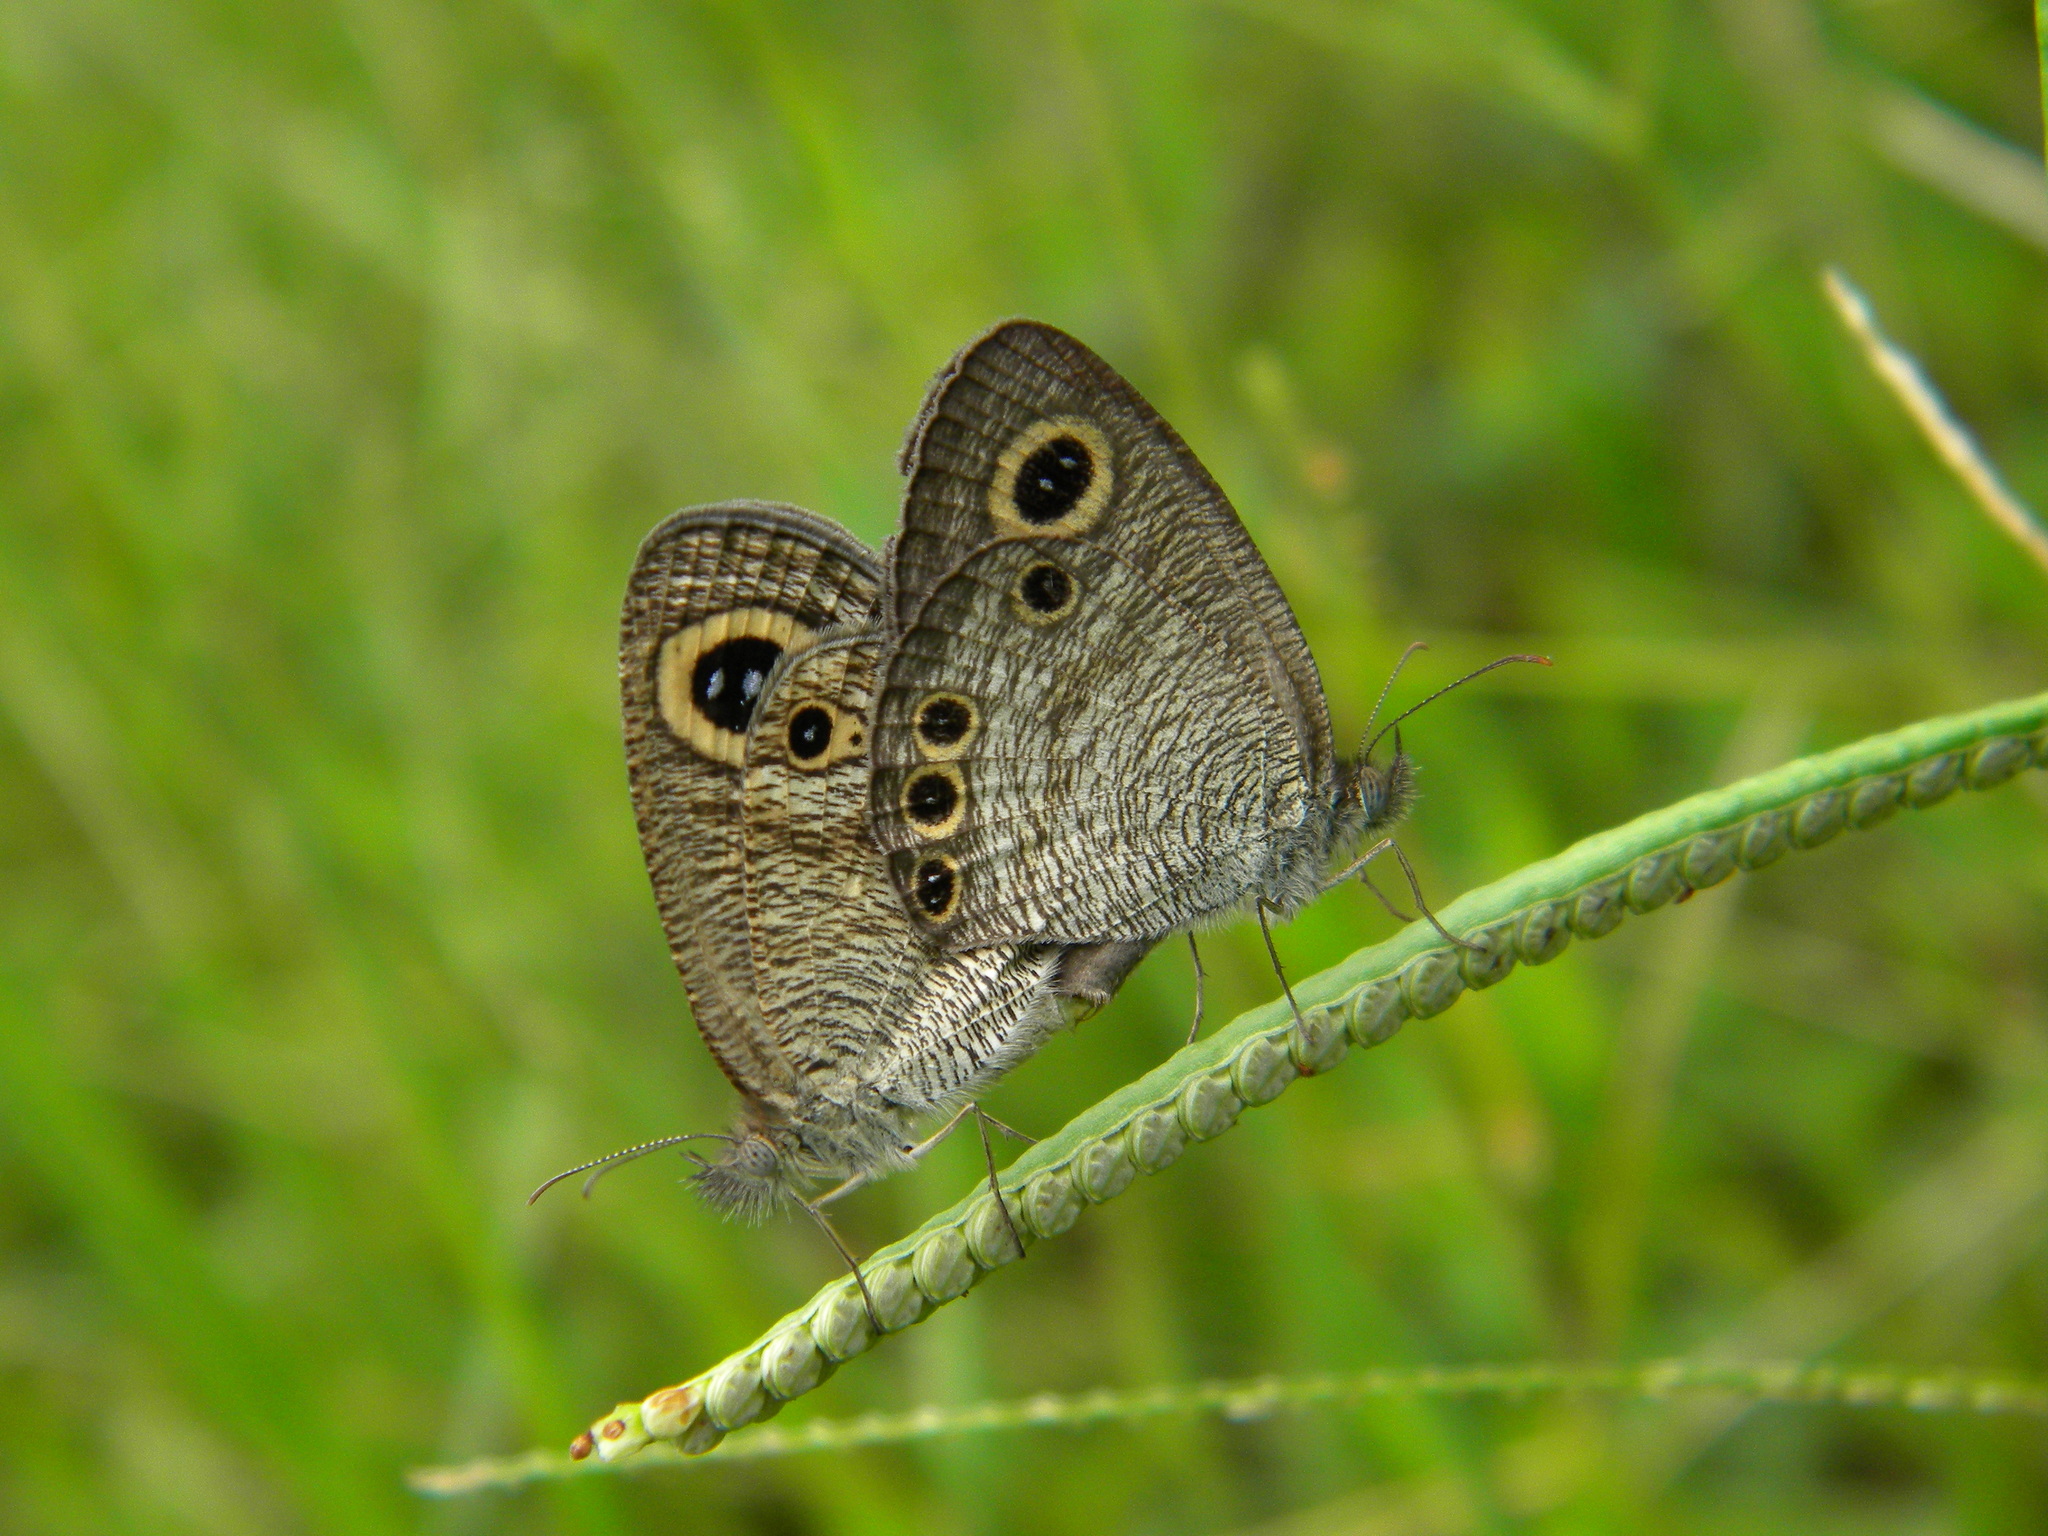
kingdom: Animalia
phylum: Arthropoda
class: Insecta
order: Lepidoptera
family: Nymphalidae
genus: Ypthima
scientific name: Ypthima huebneri
